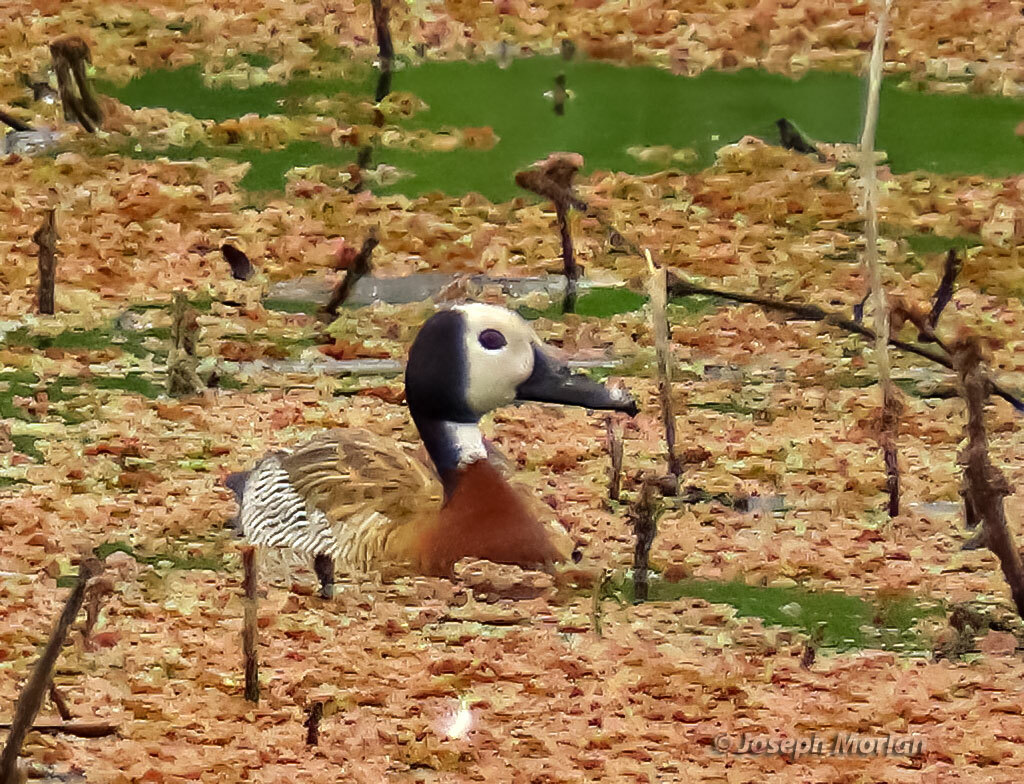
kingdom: Animalia
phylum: Chordata
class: Aves
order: Anseriformes
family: Anatidae
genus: Dendrocygna
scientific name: Dendrocygna viduata
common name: White-faced whistling duck
